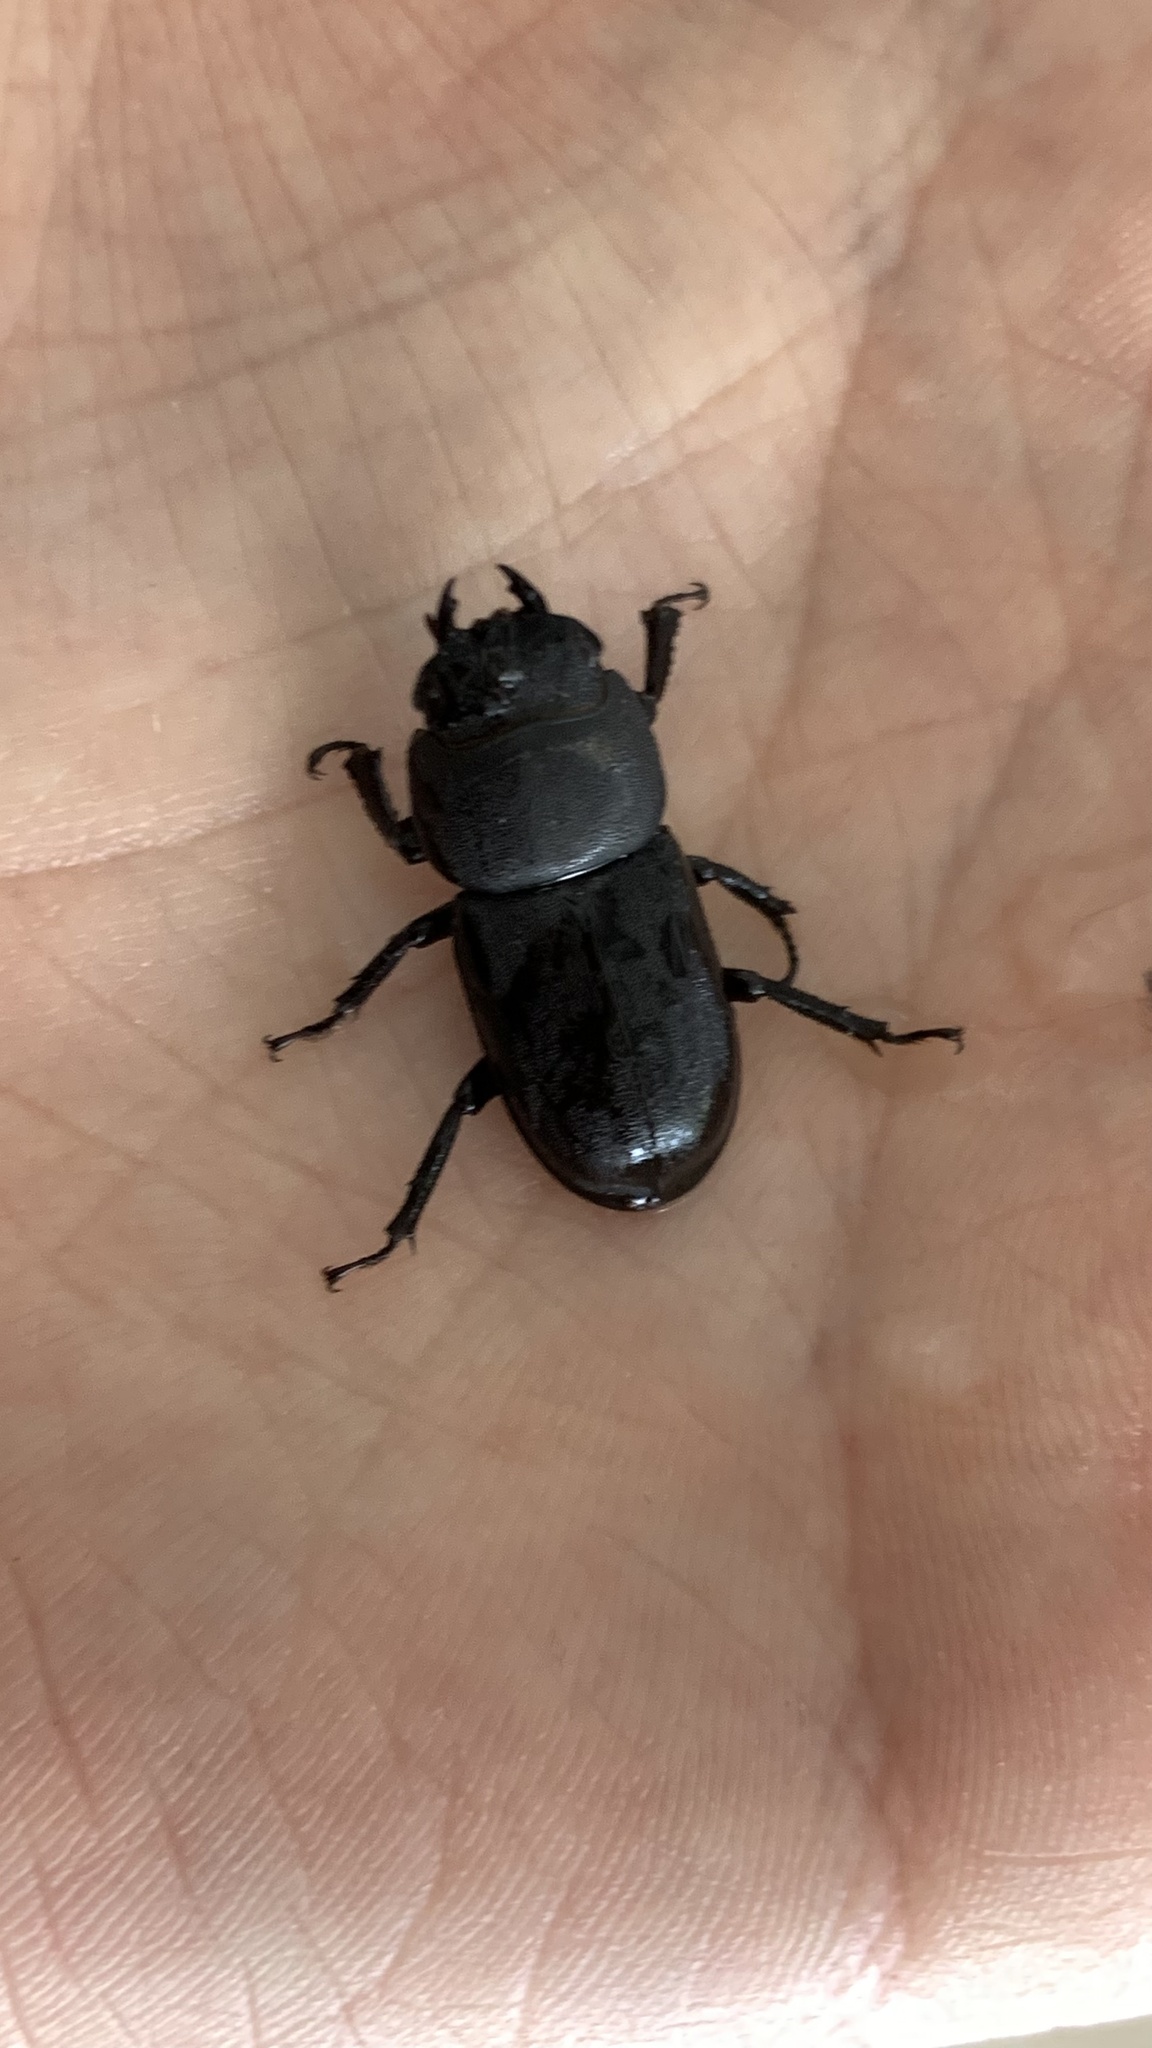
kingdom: Animalia
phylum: Arthropoda
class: Insecta
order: Coleoptera
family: Lucanidae
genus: Dorcus
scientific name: Dorcus parallelipipedus
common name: Lesser stag beetle
